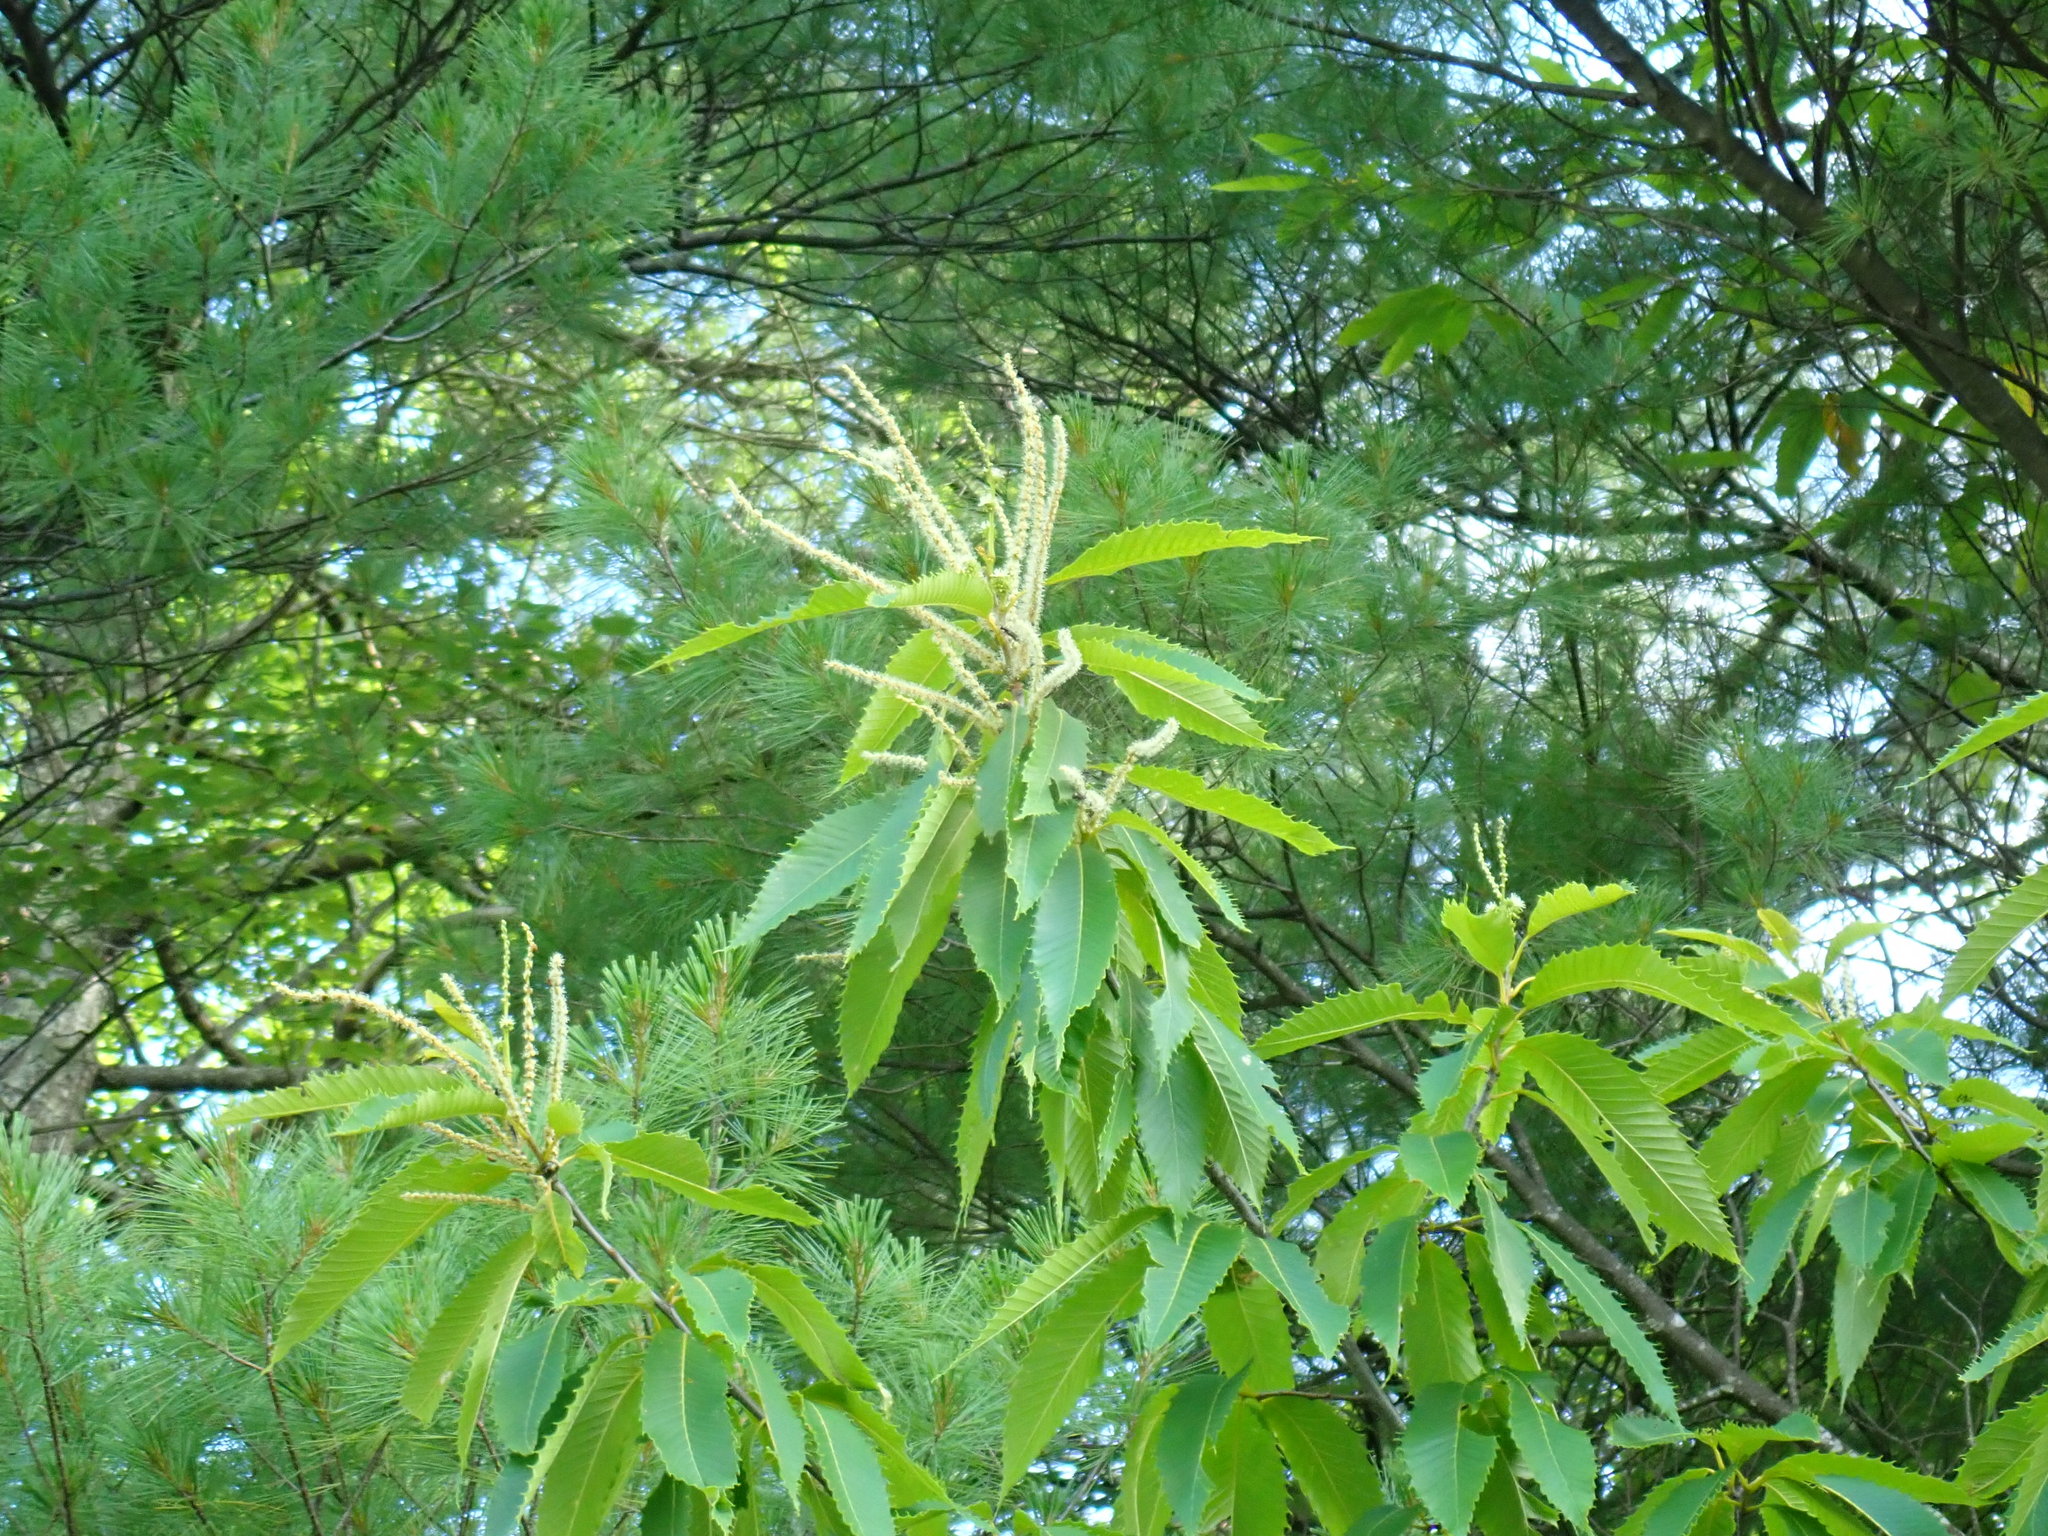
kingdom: Plantae
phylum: Tracheophyta
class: Magnoliopsida
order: Fagales
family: Fagaceae
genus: Castanea
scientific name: Castanea dentata
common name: American chestnut
